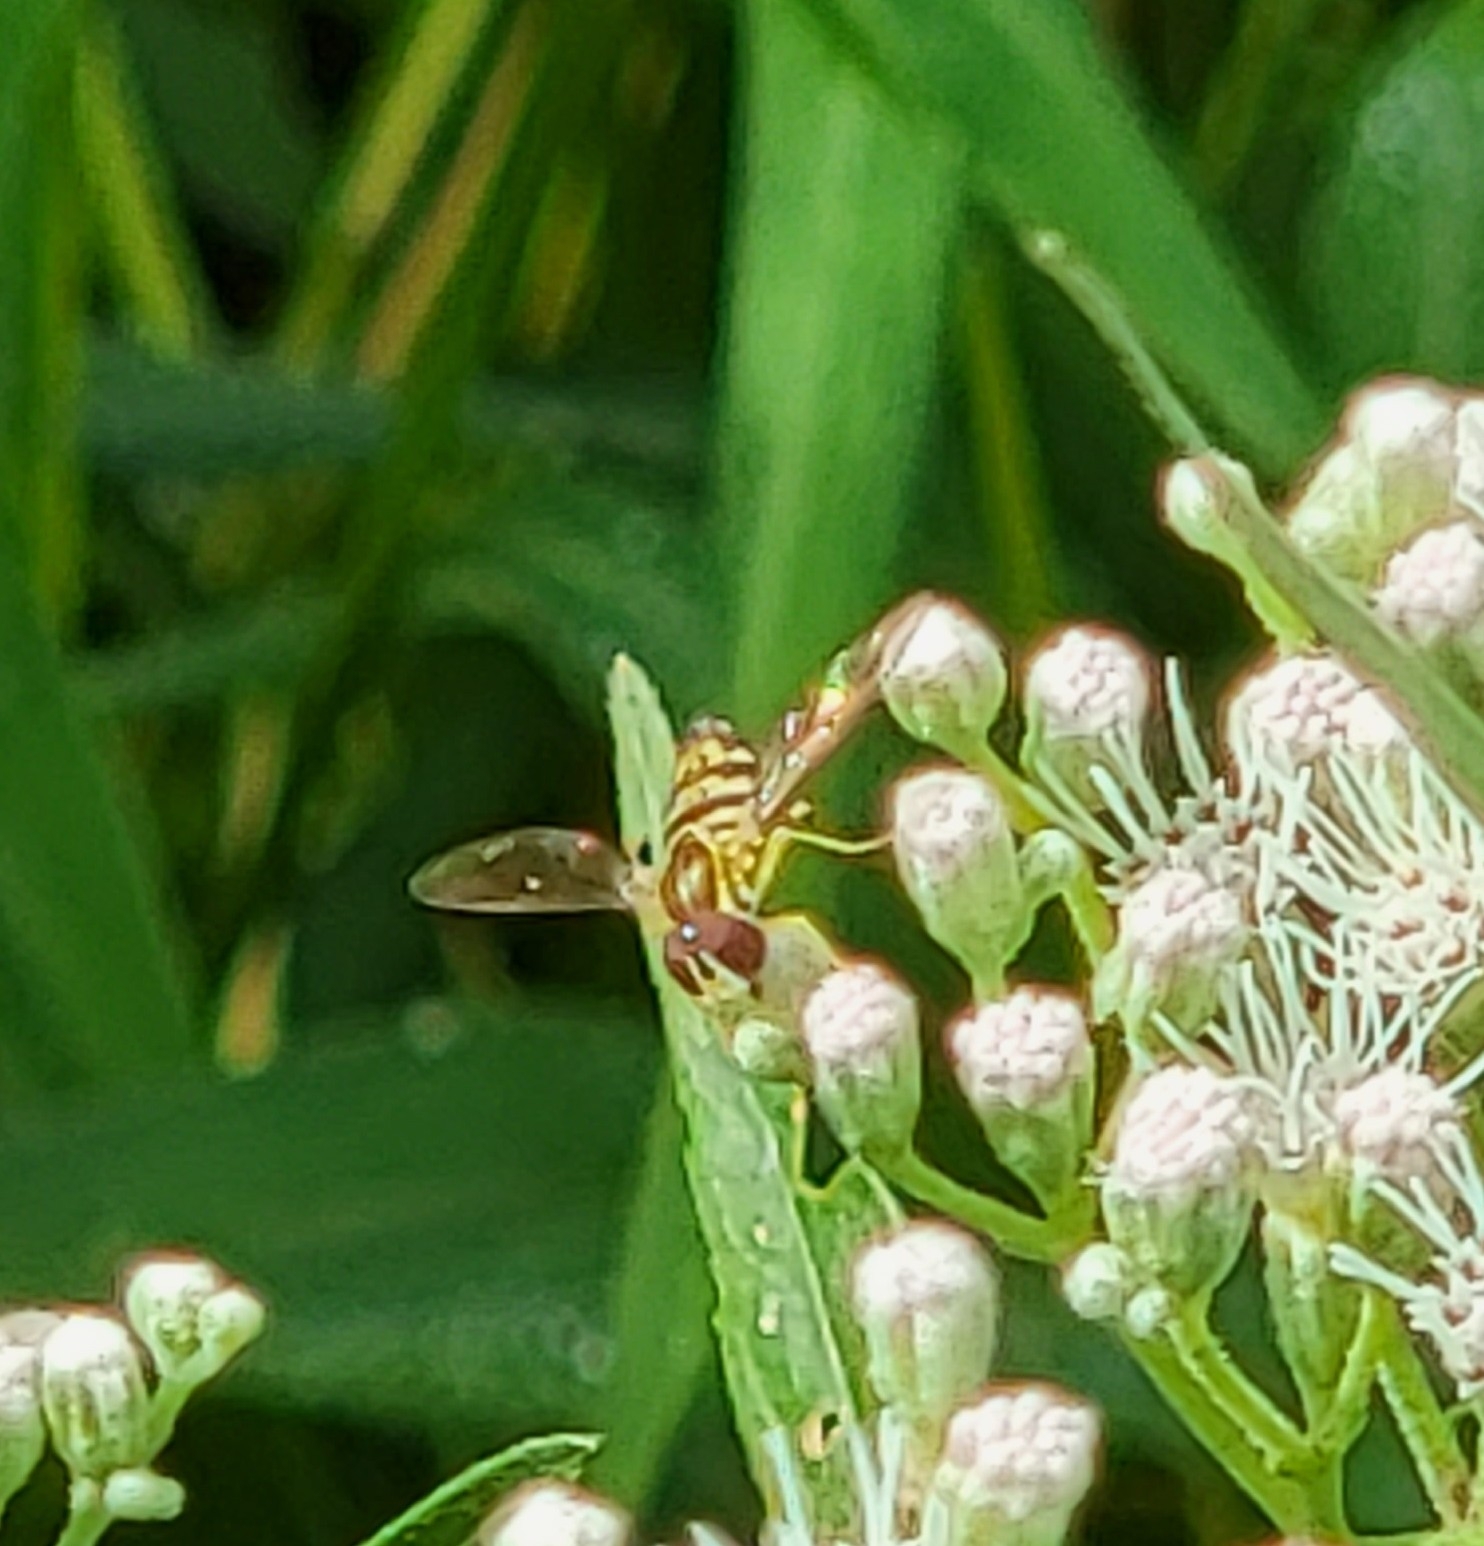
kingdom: Animalia
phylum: Arthropoda
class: Insecta
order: Diptera
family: Syrphidae
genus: Toxomerus
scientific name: Toxomerus geminatus
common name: Eastern calligrapher
